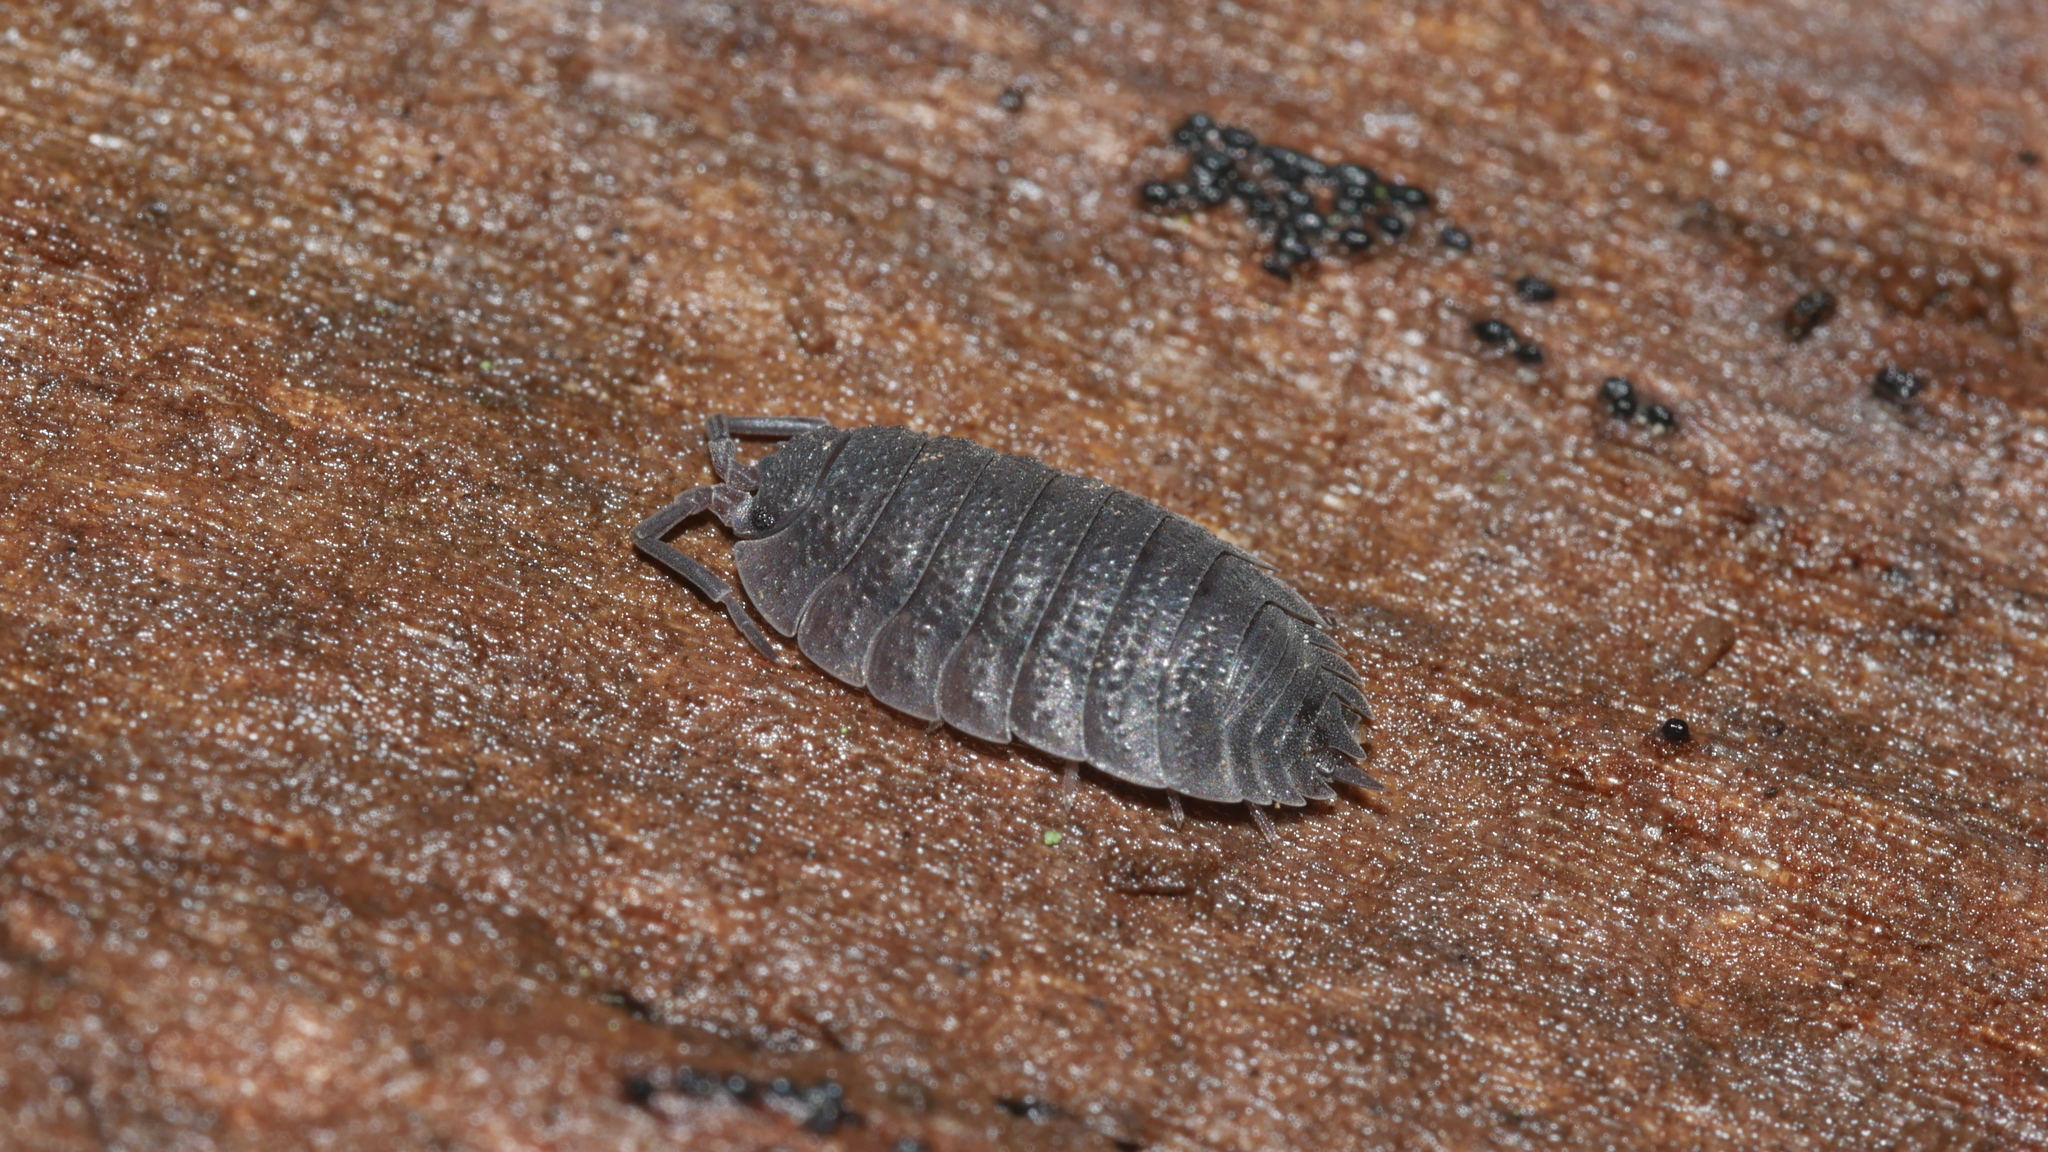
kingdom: Animalia
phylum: Arthropoda
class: Malacostraca
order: Isopoda
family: Porcellionidae
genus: Porcellio
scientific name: Porcellio scaber
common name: Common rough woodlouse
